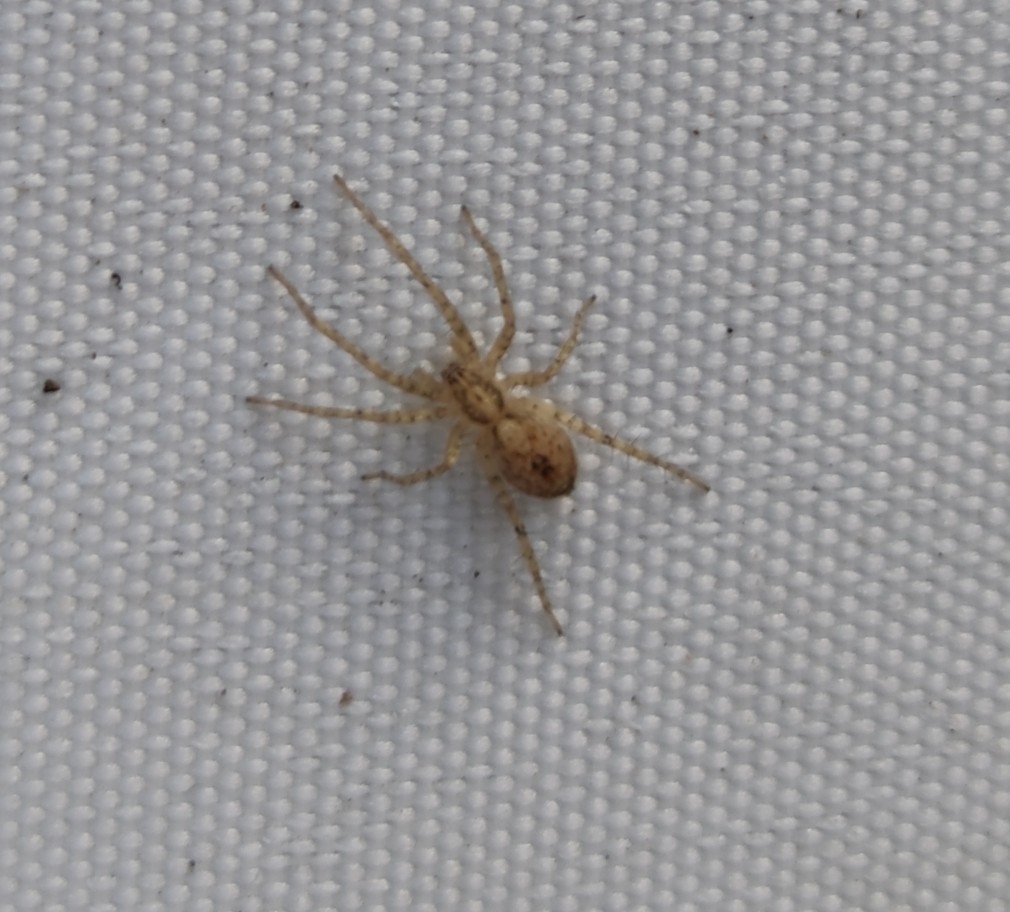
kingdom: Animalia
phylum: Arthropoda
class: Arachnida
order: Araneae
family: Anyphaenidae
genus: Anyphaena
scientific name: Anyphaena accentuata
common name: Buzzing spider
